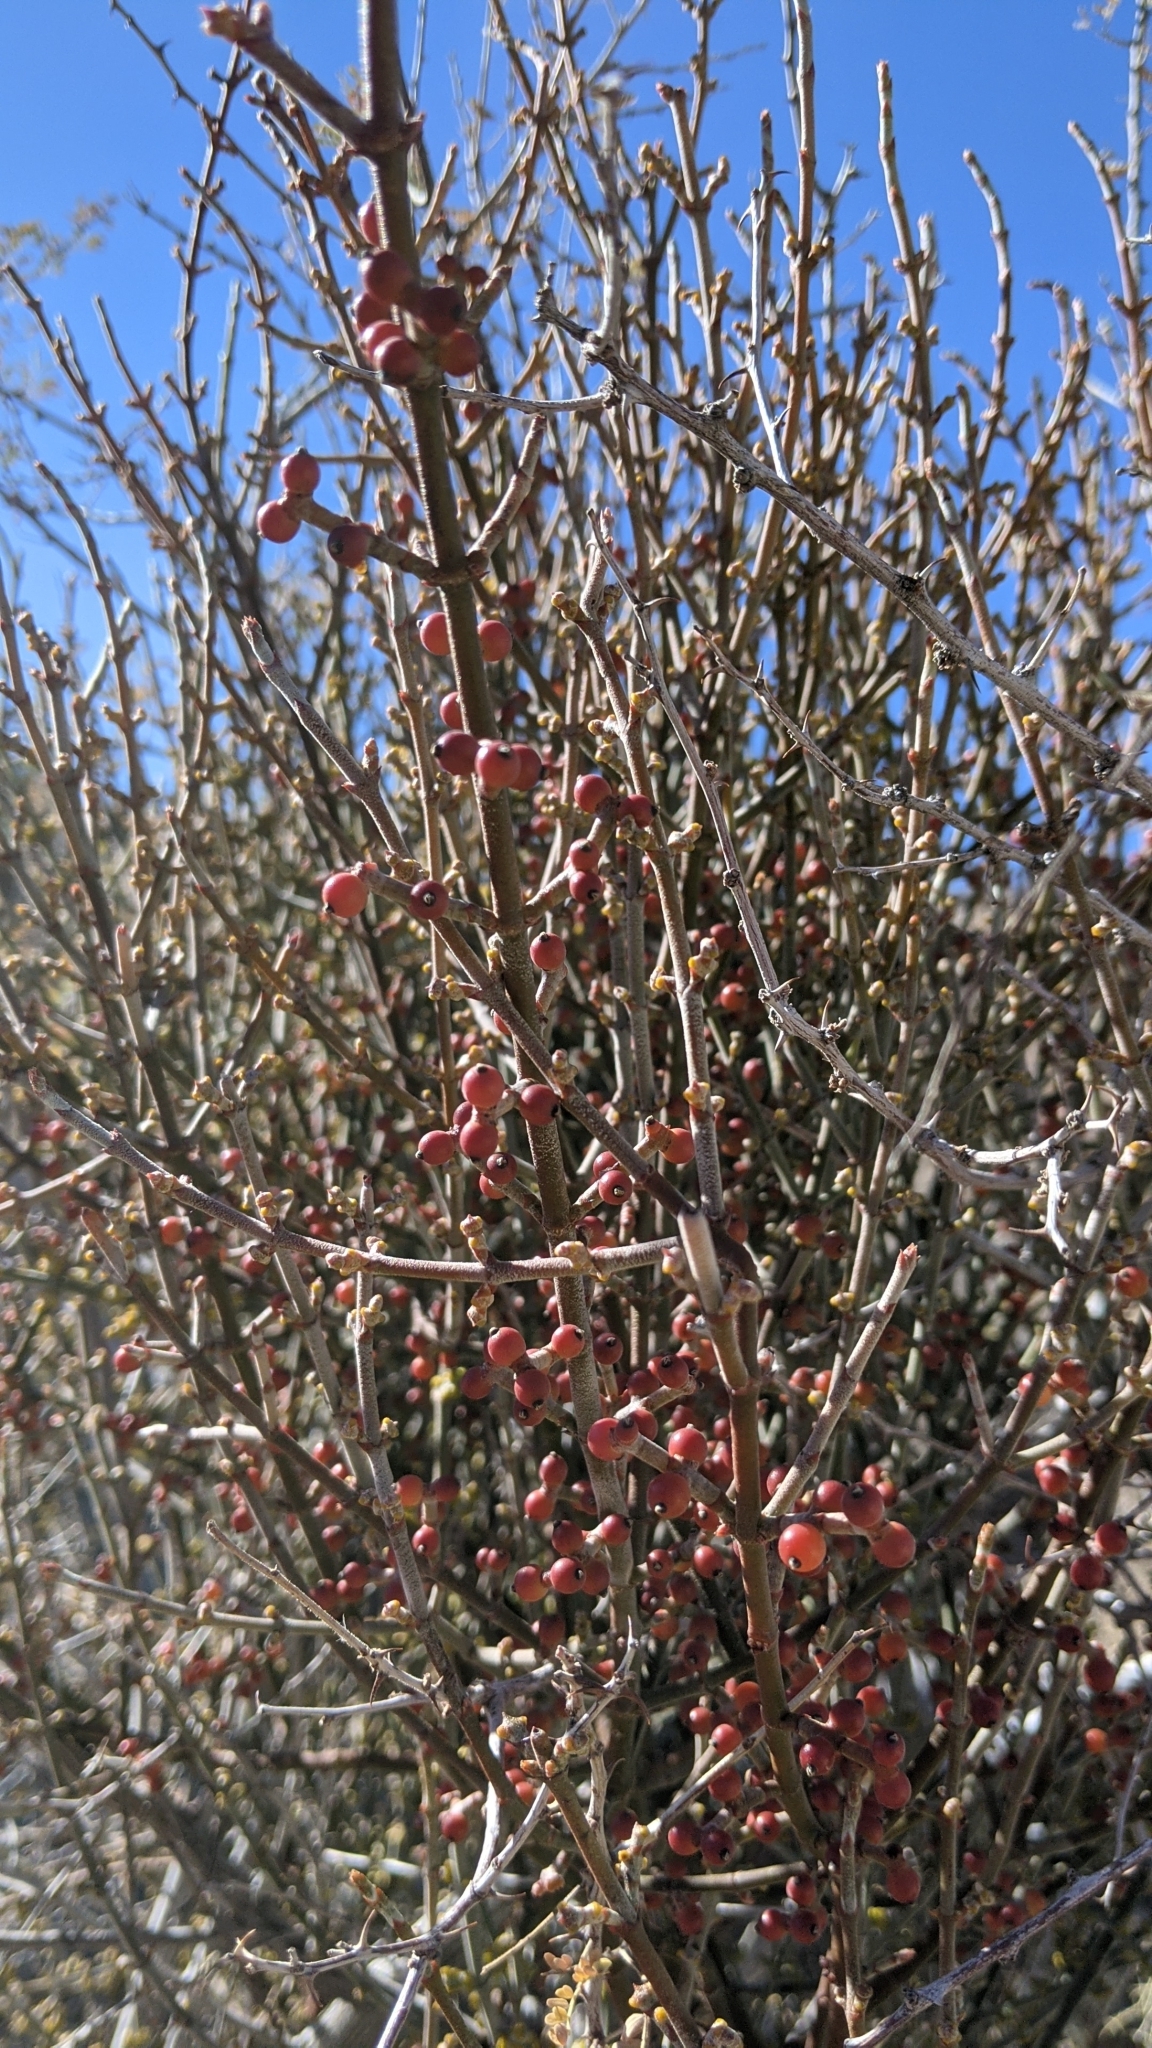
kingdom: Plantae
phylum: Tracheophyta
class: Magnoliopsida
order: Santalales
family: Viscaceae
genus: Phoradendron
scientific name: Phoradendron californicum
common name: Acacia mistletoe
